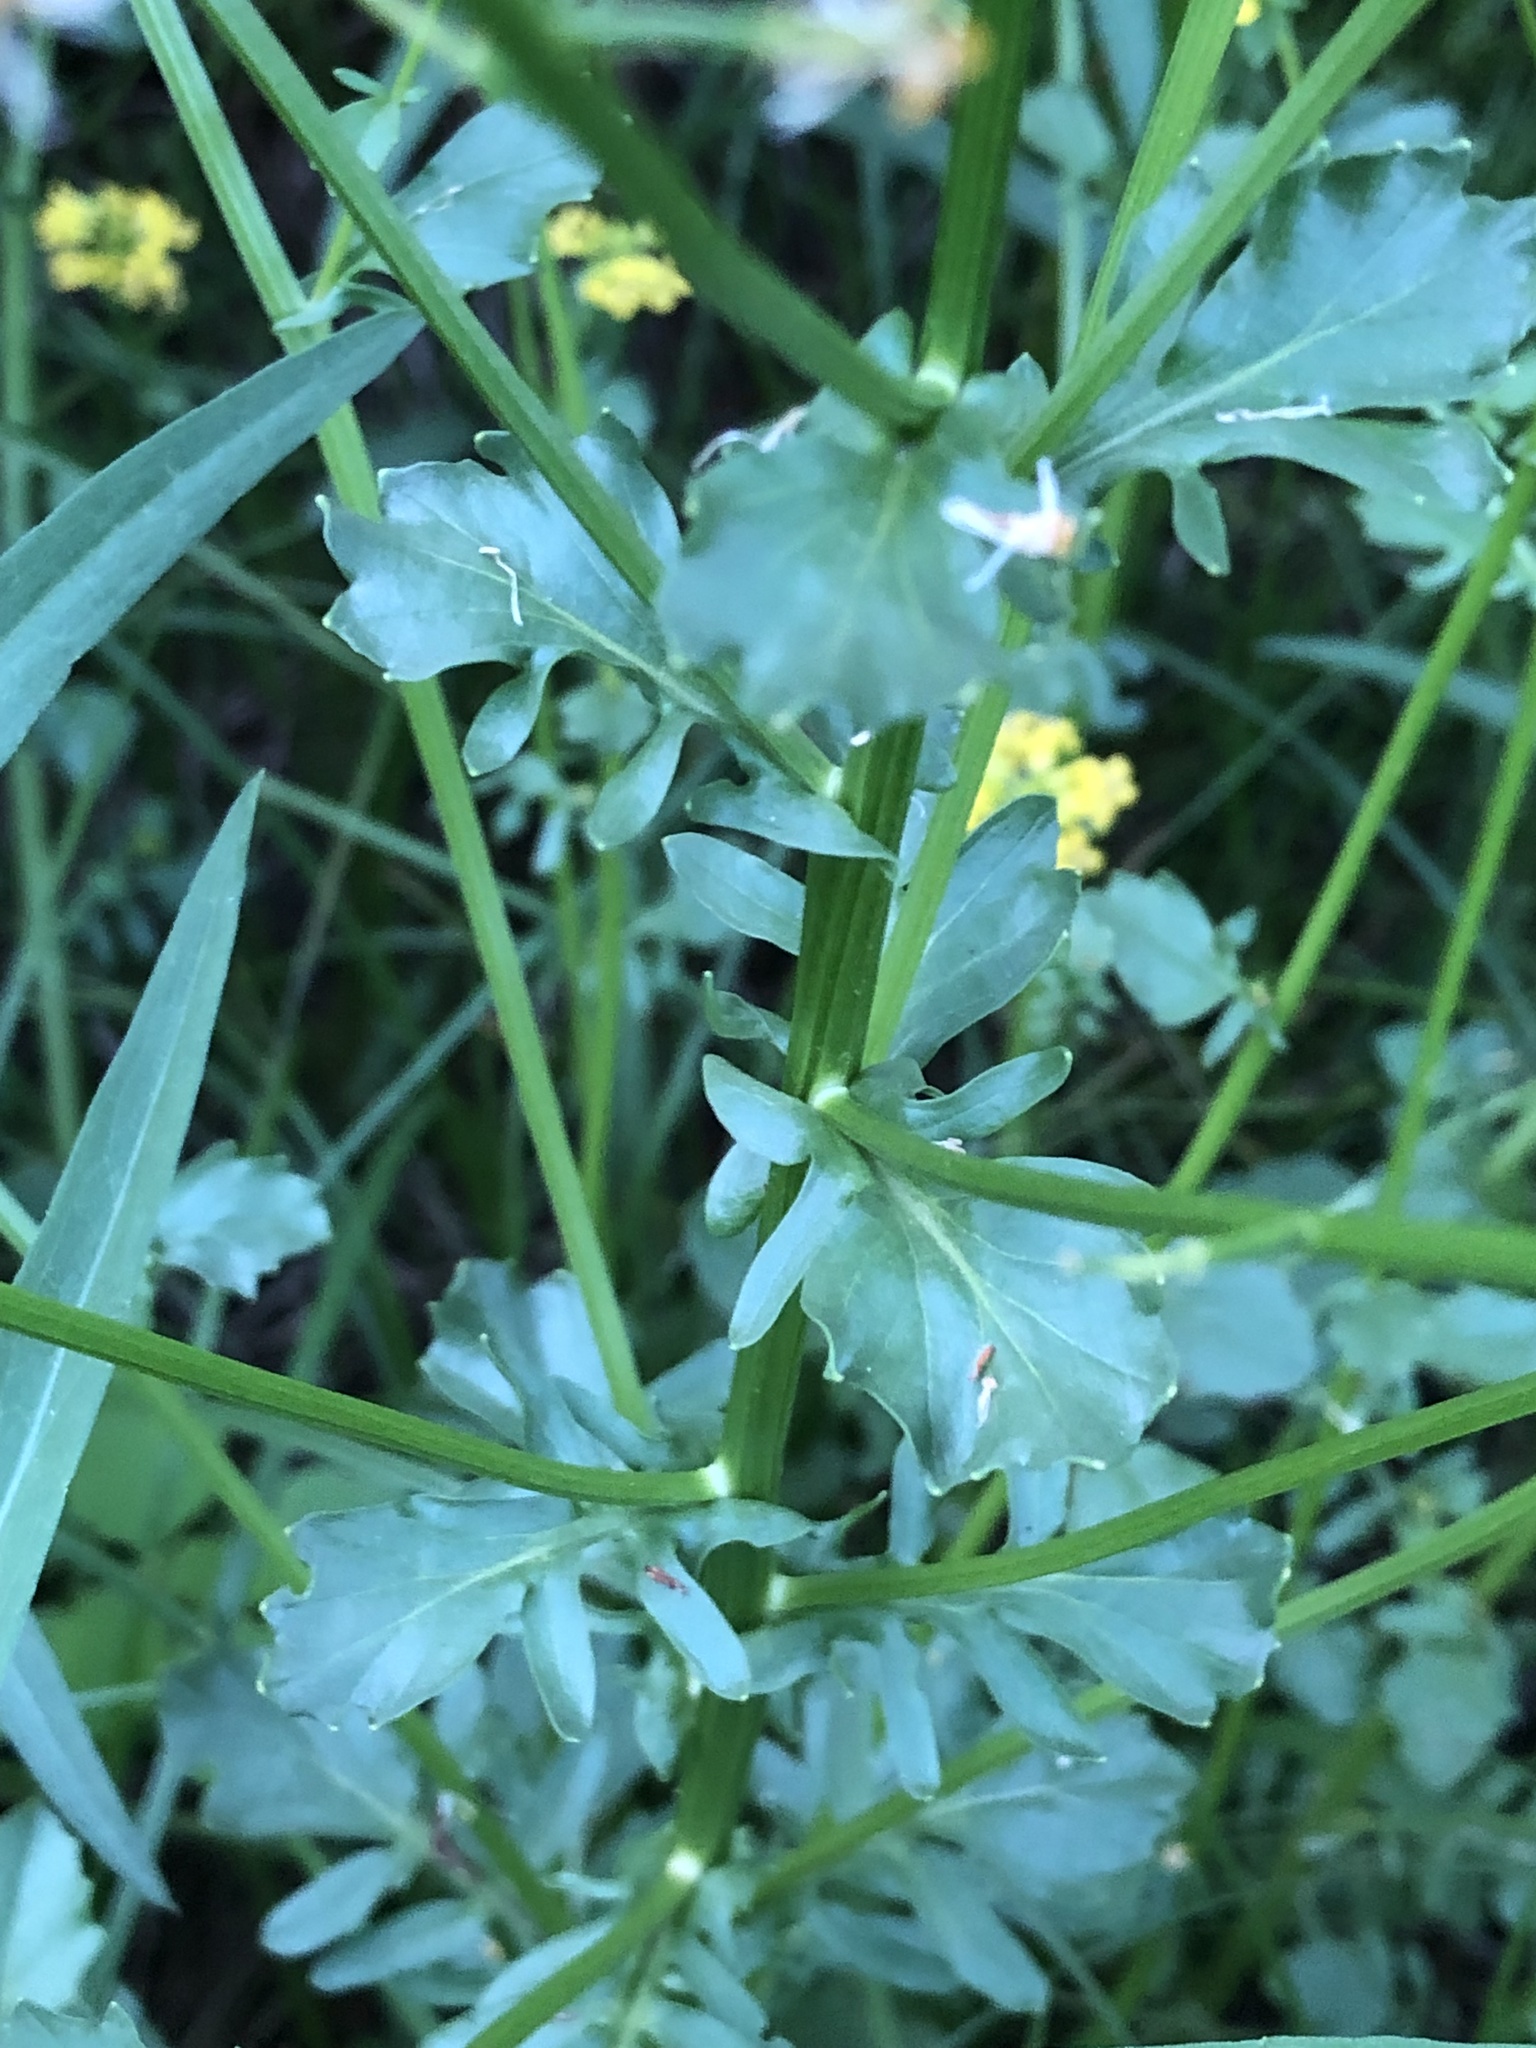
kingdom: Plantae
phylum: Tracheophyta
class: Magnoliopsida
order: Brassicales
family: Brassicaceae
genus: Barbarea
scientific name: Barbarea vulgaris
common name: Cressy-greens
